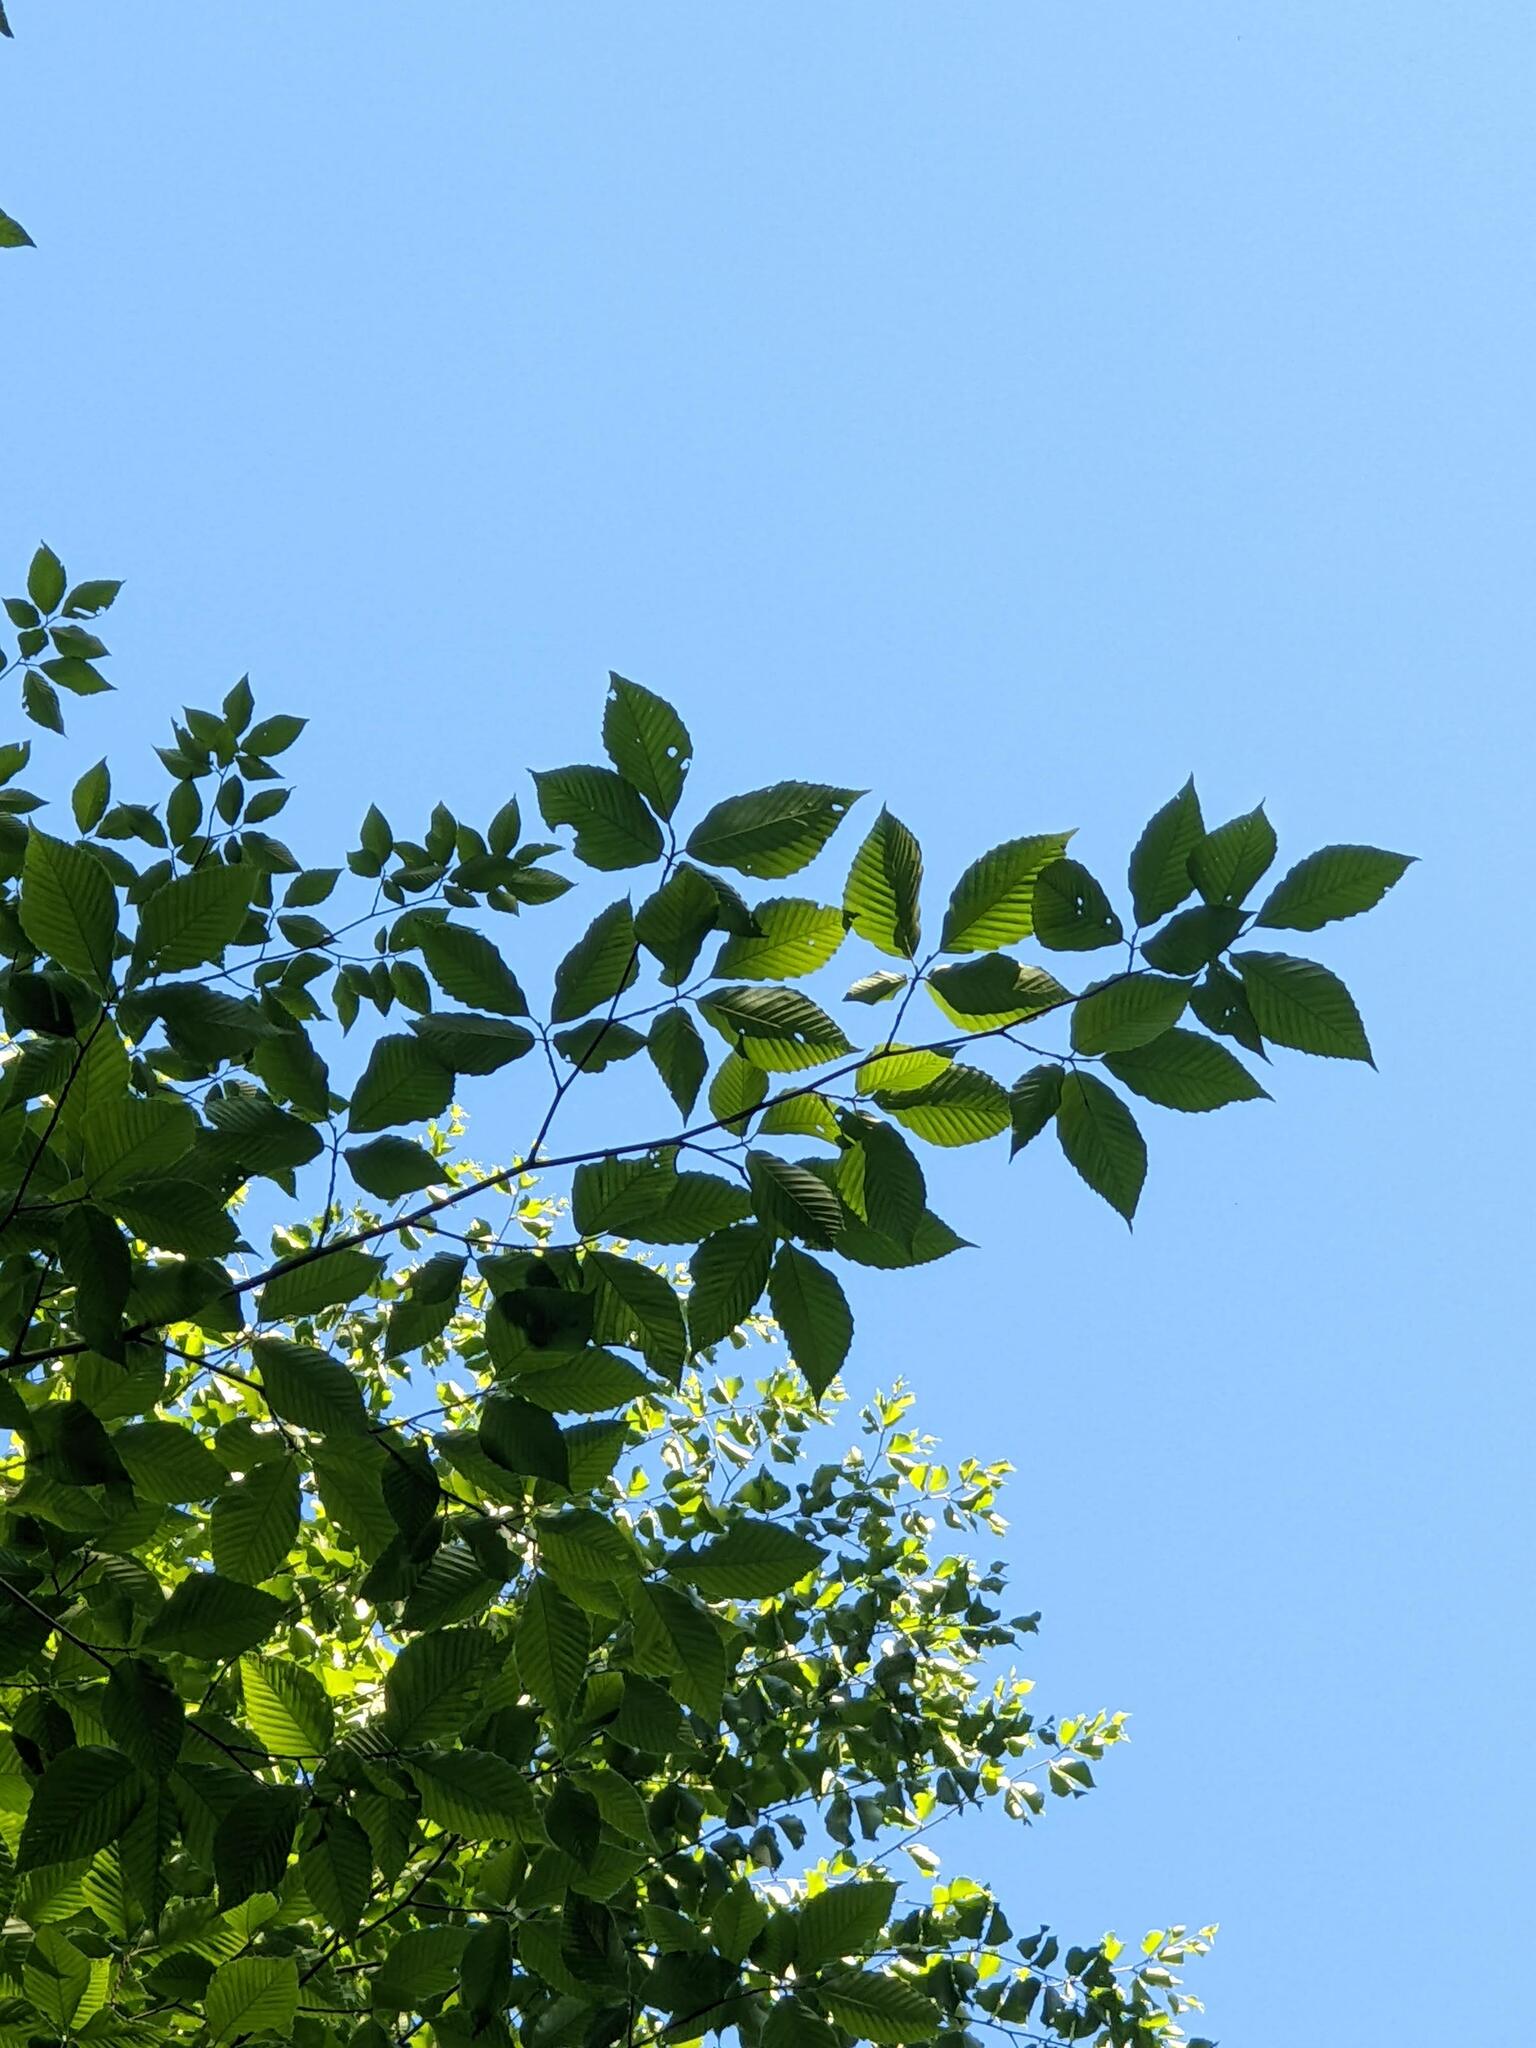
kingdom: Plantae
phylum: Tracheophyta
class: Magnoliopsida
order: Fagales
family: Fagaceae
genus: Fagus
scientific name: Fagus grandifolia
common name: American beech
